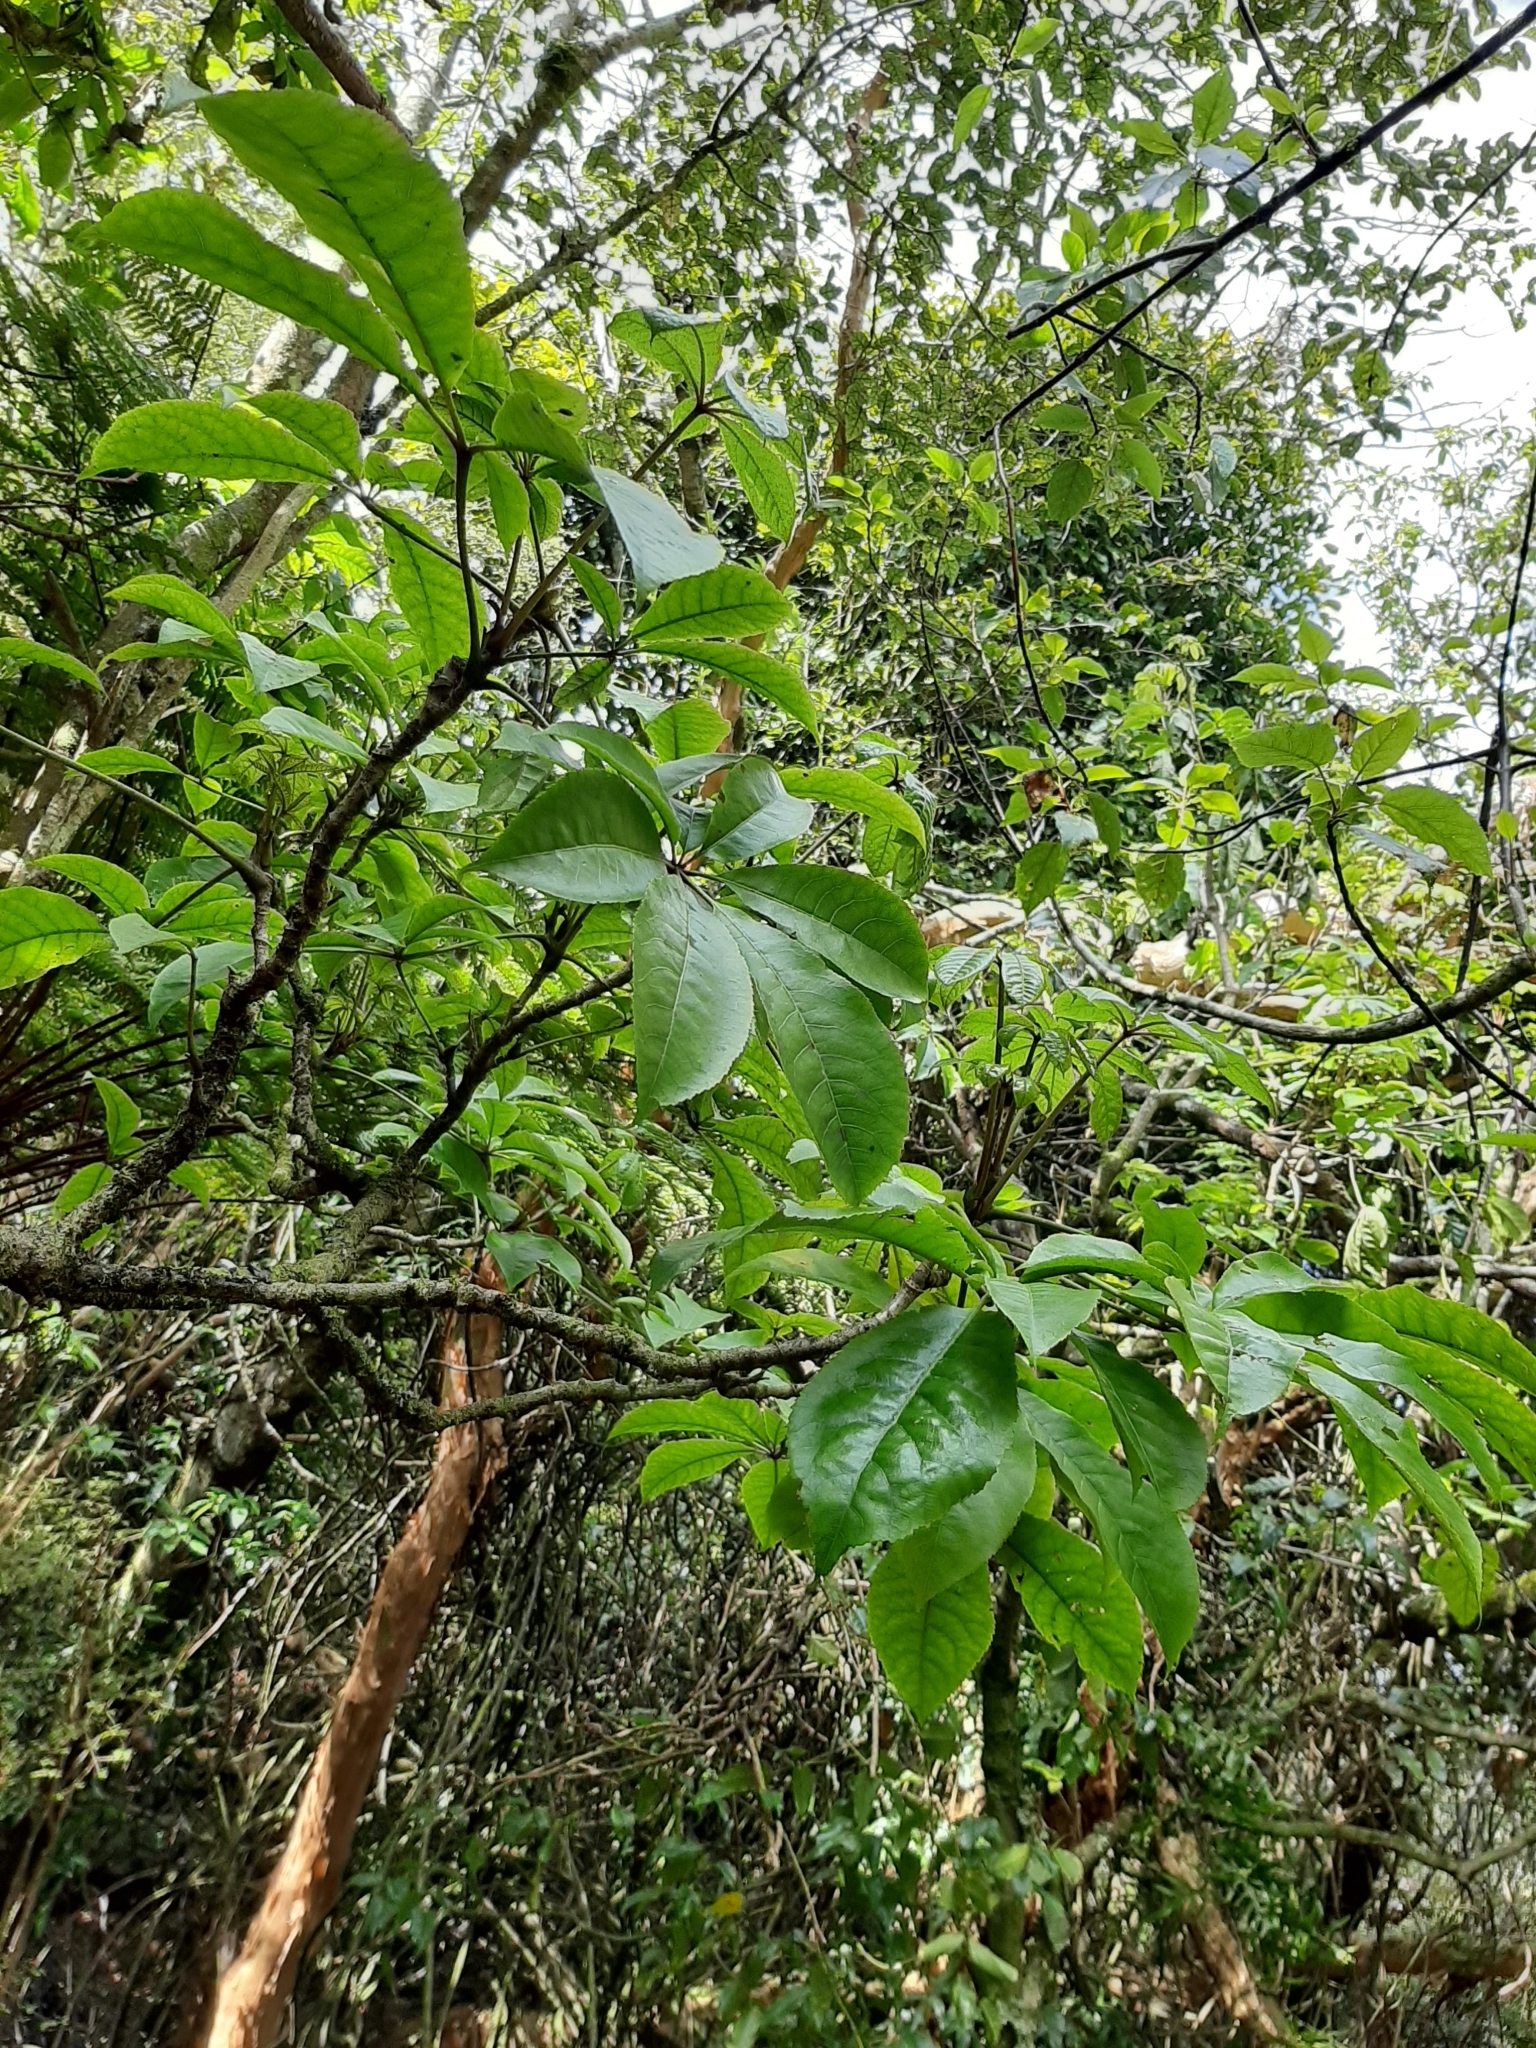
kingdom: Plantae
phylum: Tracheophyta
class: Magnoliopsida
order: Apiales
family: Araliaceae
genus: Schefflera
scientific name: Schefflera digitata
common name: Pate
